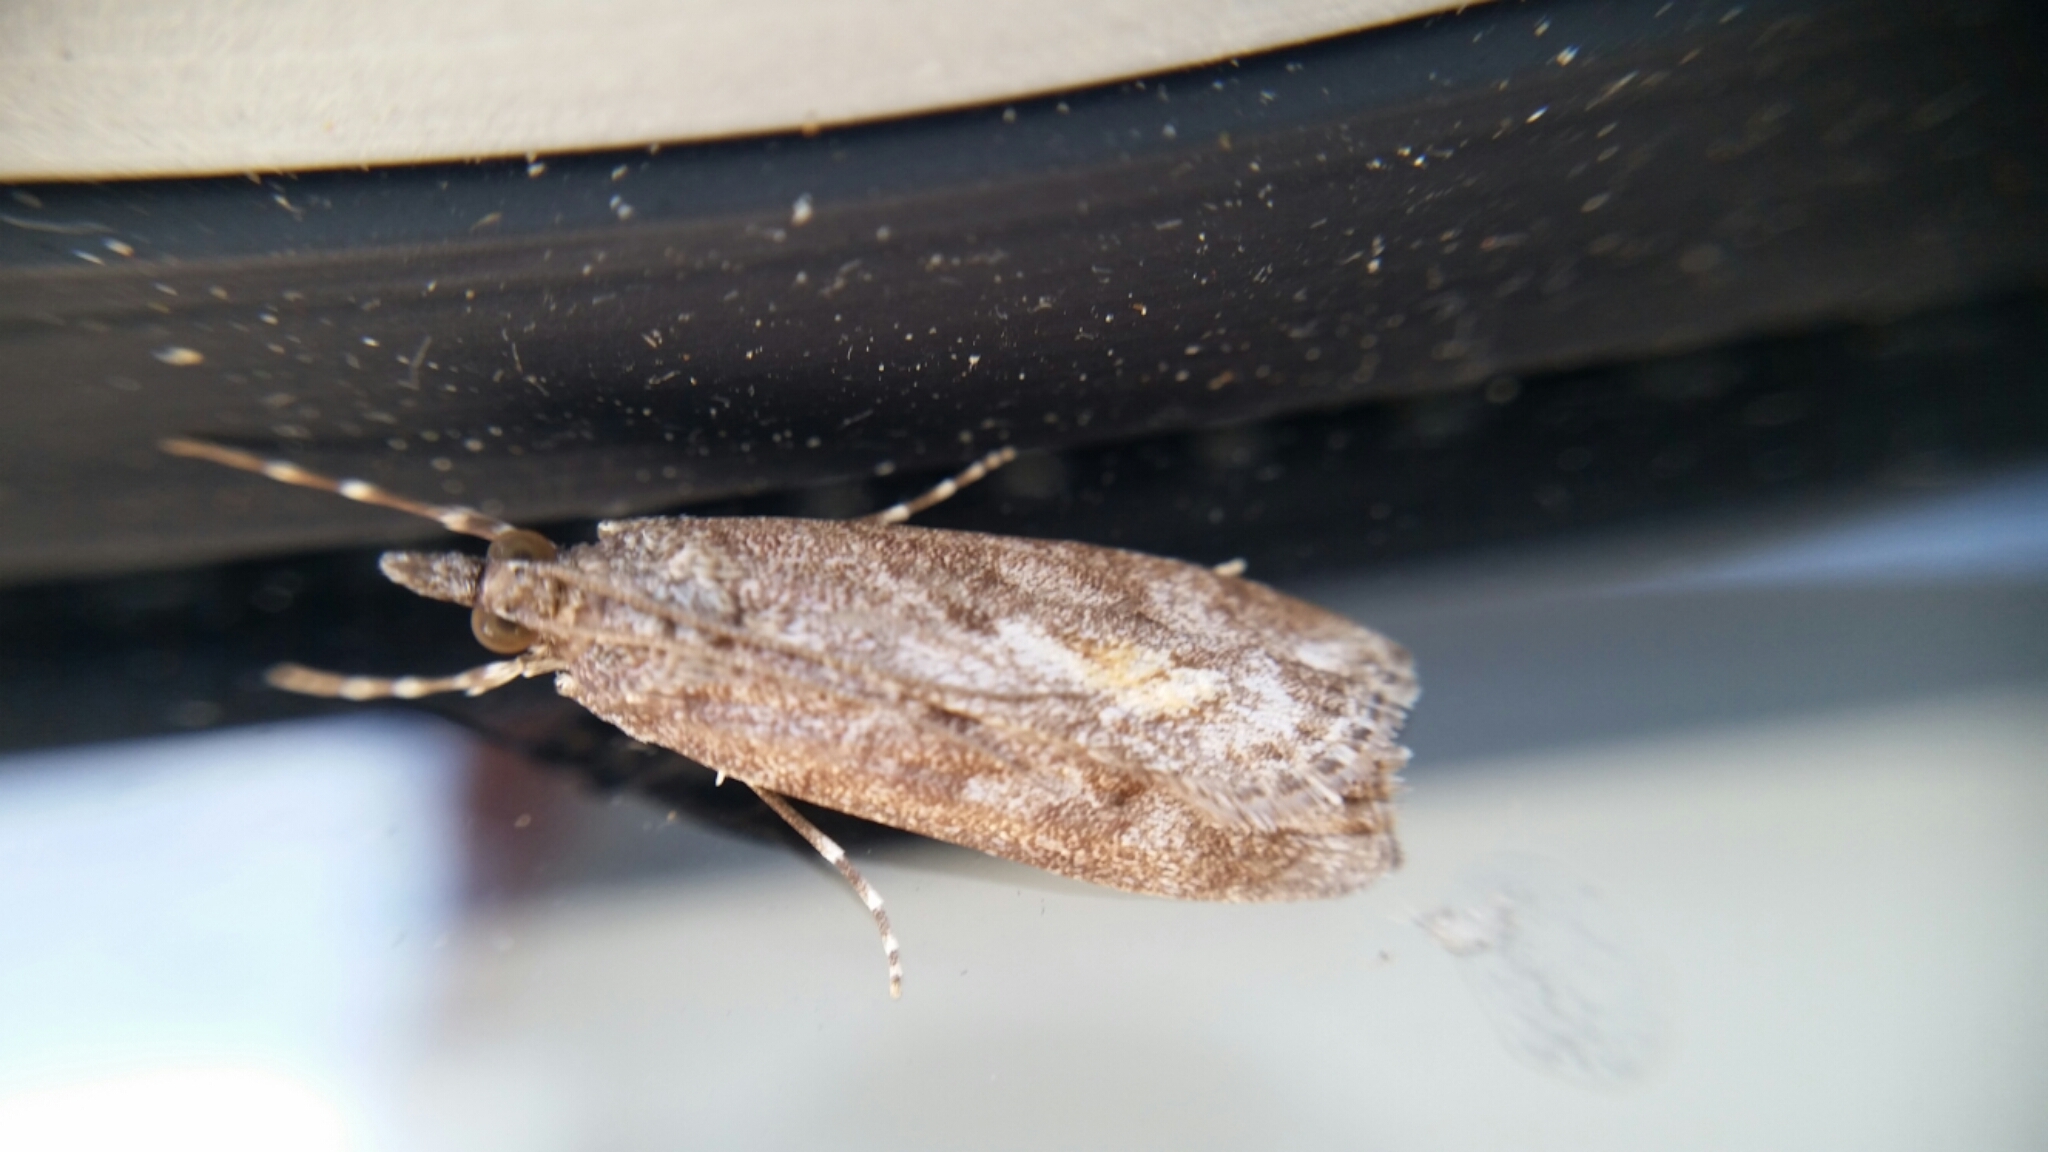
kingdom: Animalia
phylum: Arthropoda
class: Insecta
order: Lepidoptera
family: Crambidae
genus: Eudonia
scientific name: Eudonia submarginalis
